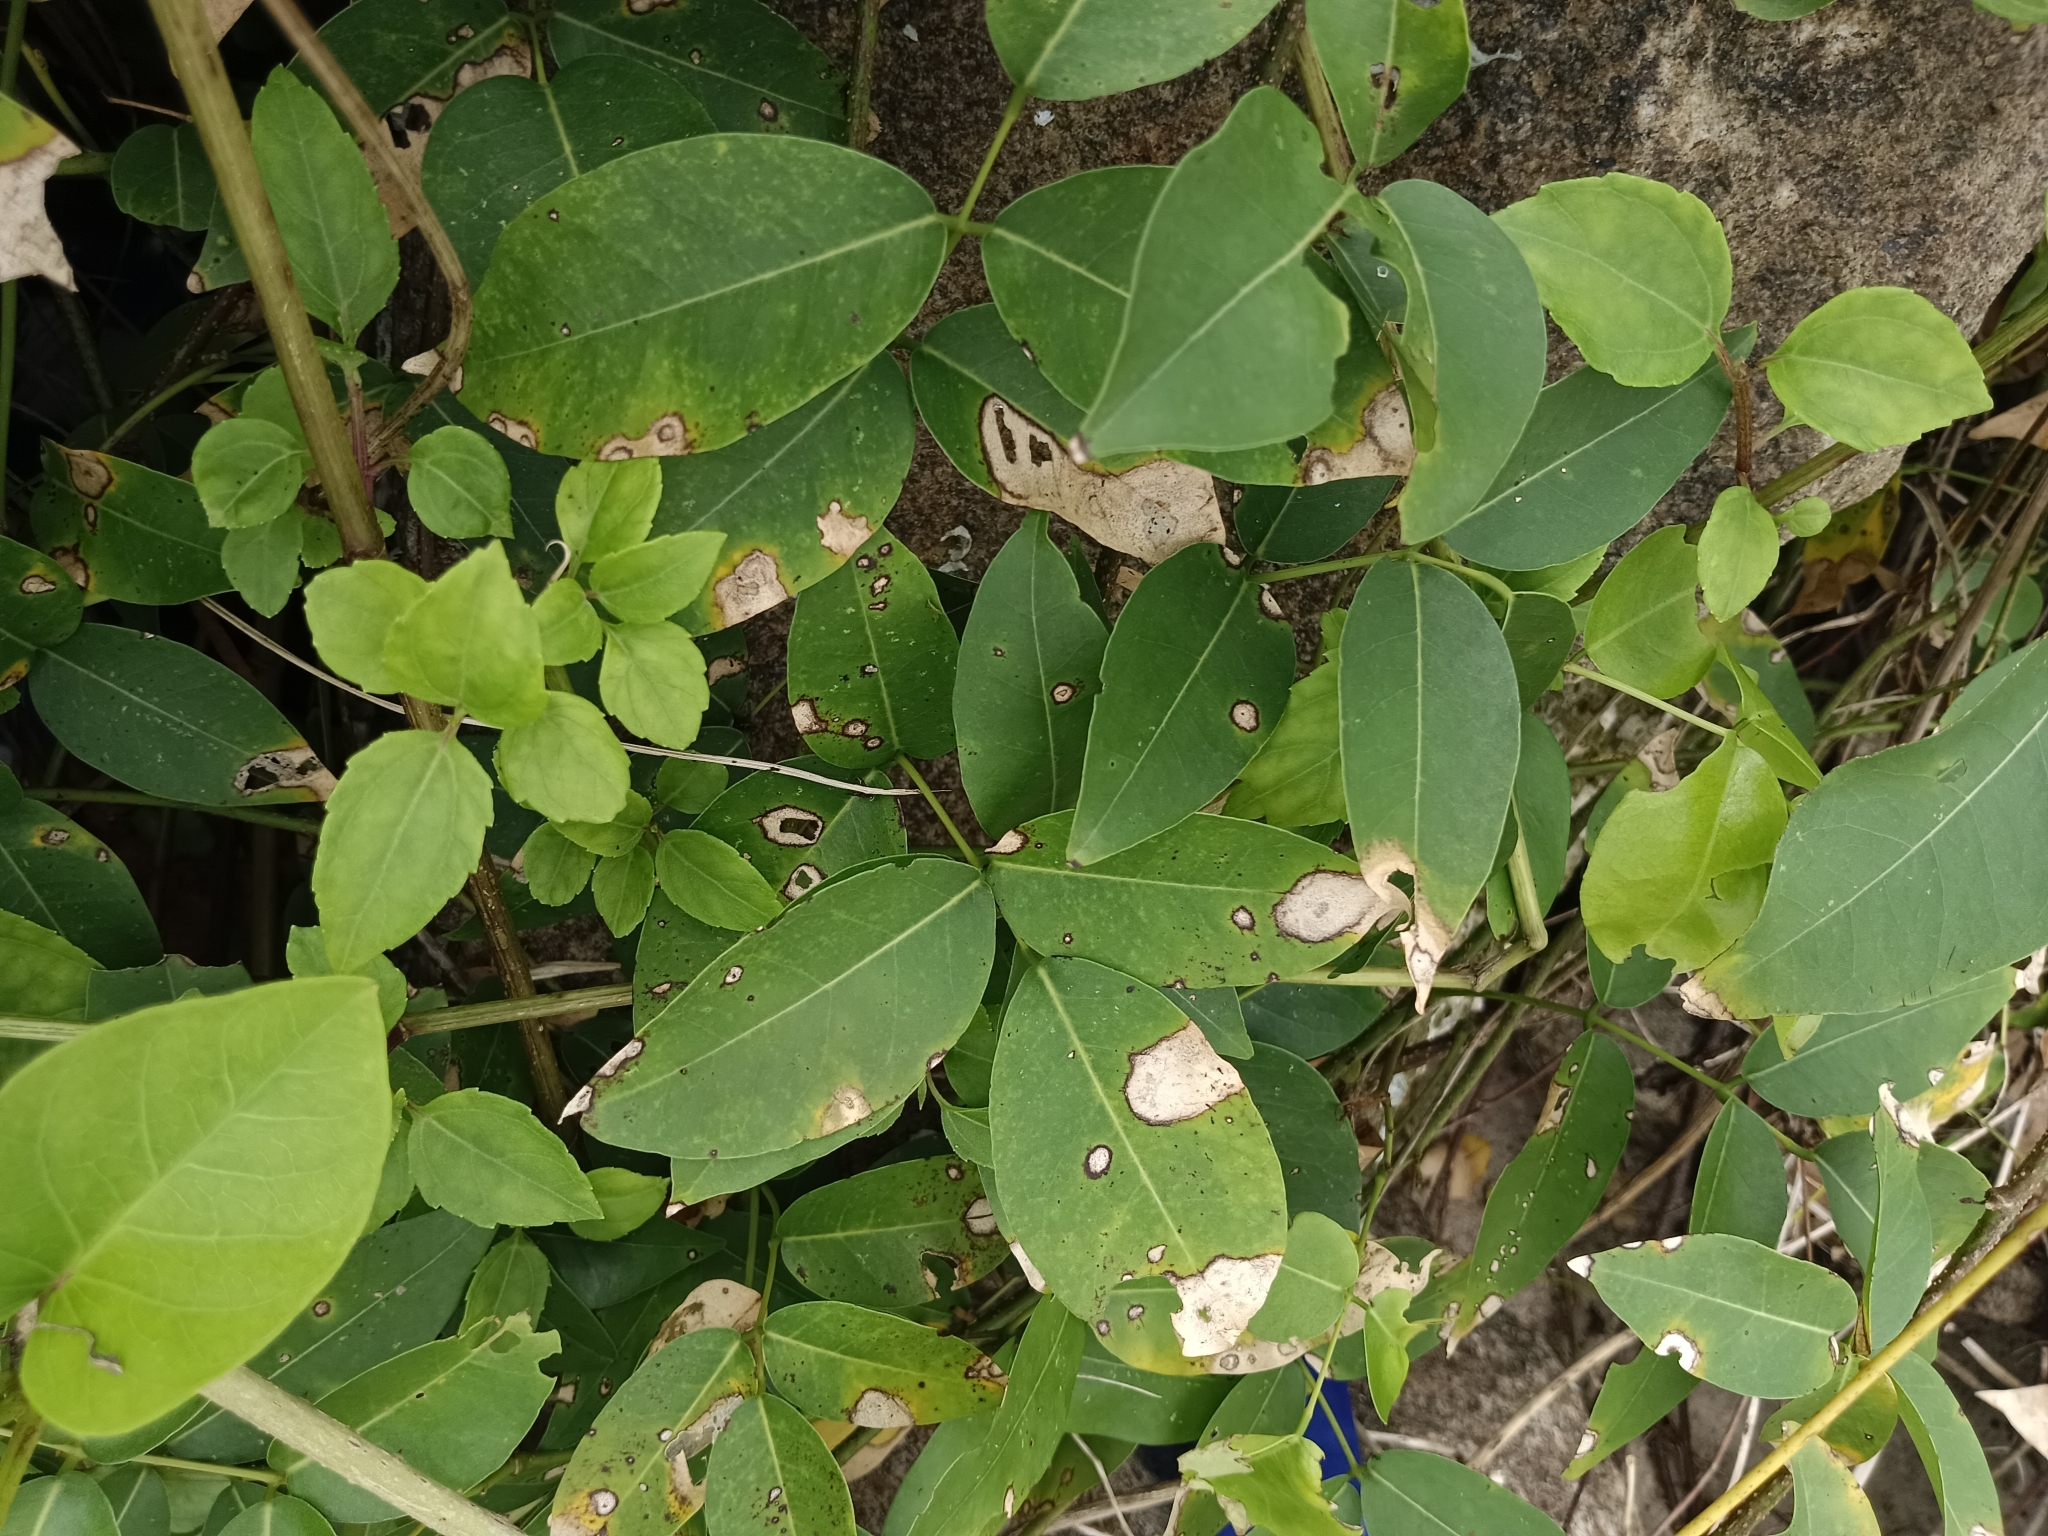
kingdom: Plantae
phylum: Tracheophyta
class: Magnoliopsida
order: Fabales
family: Fabaceae
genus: Derris
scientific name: Derris trifoliata
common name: Three-leaf derris
